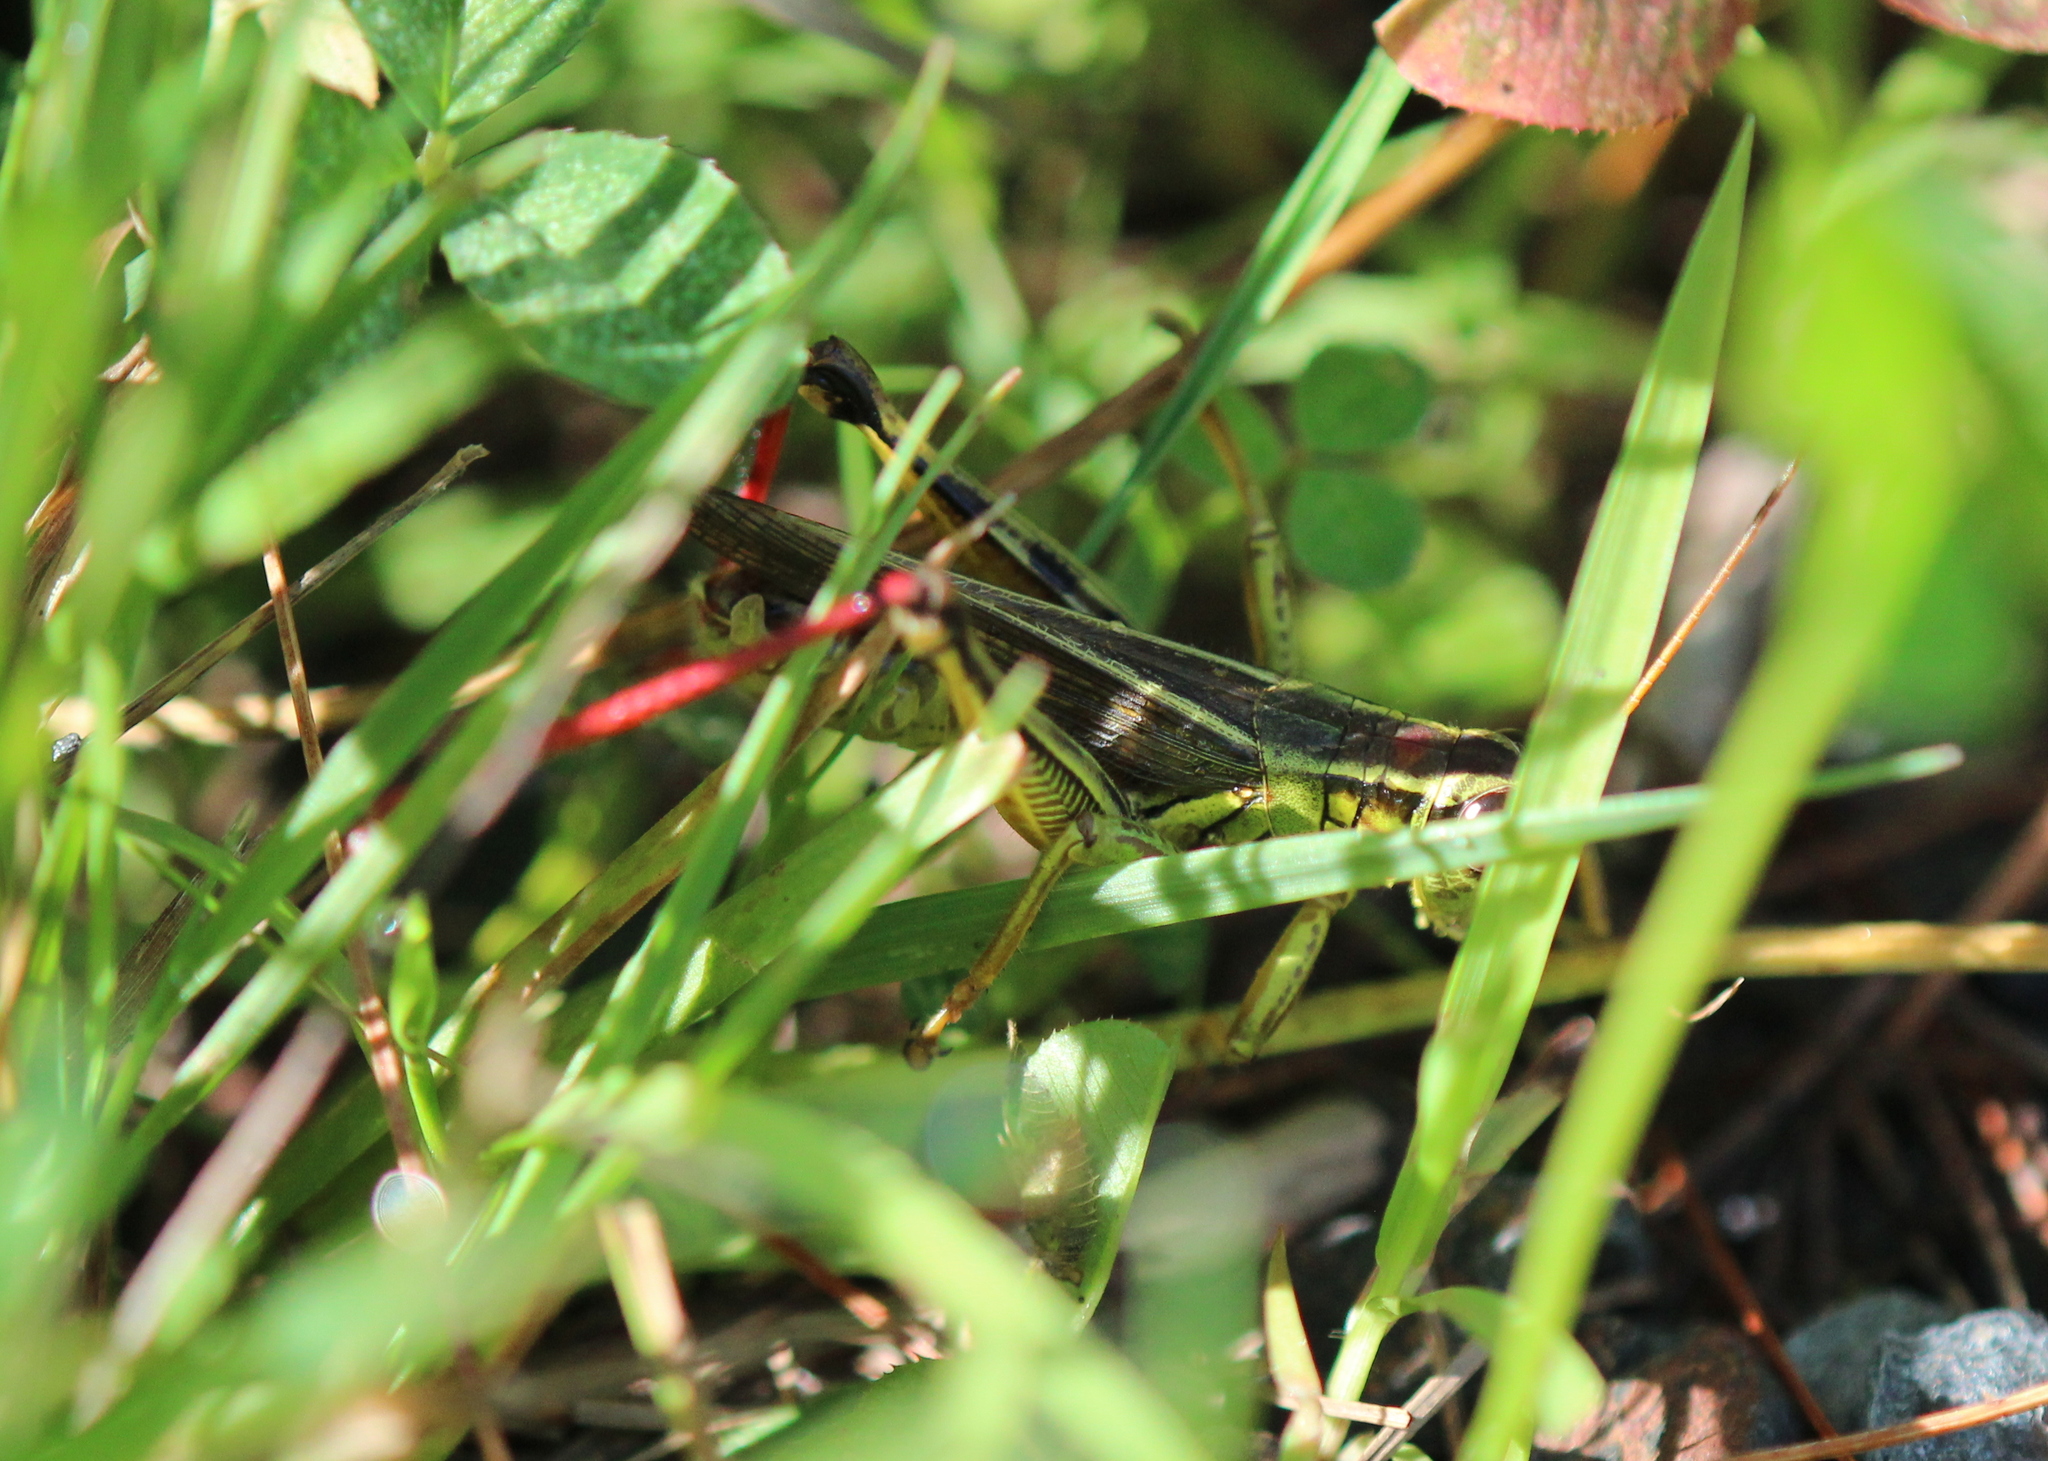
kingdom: Animalia
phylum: Arthropoda
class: Insecta
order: Orthoptera
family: Acrididae
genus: Melanoplus
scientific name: Melanoplus bivittatus
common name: Two-striped grasshopper
